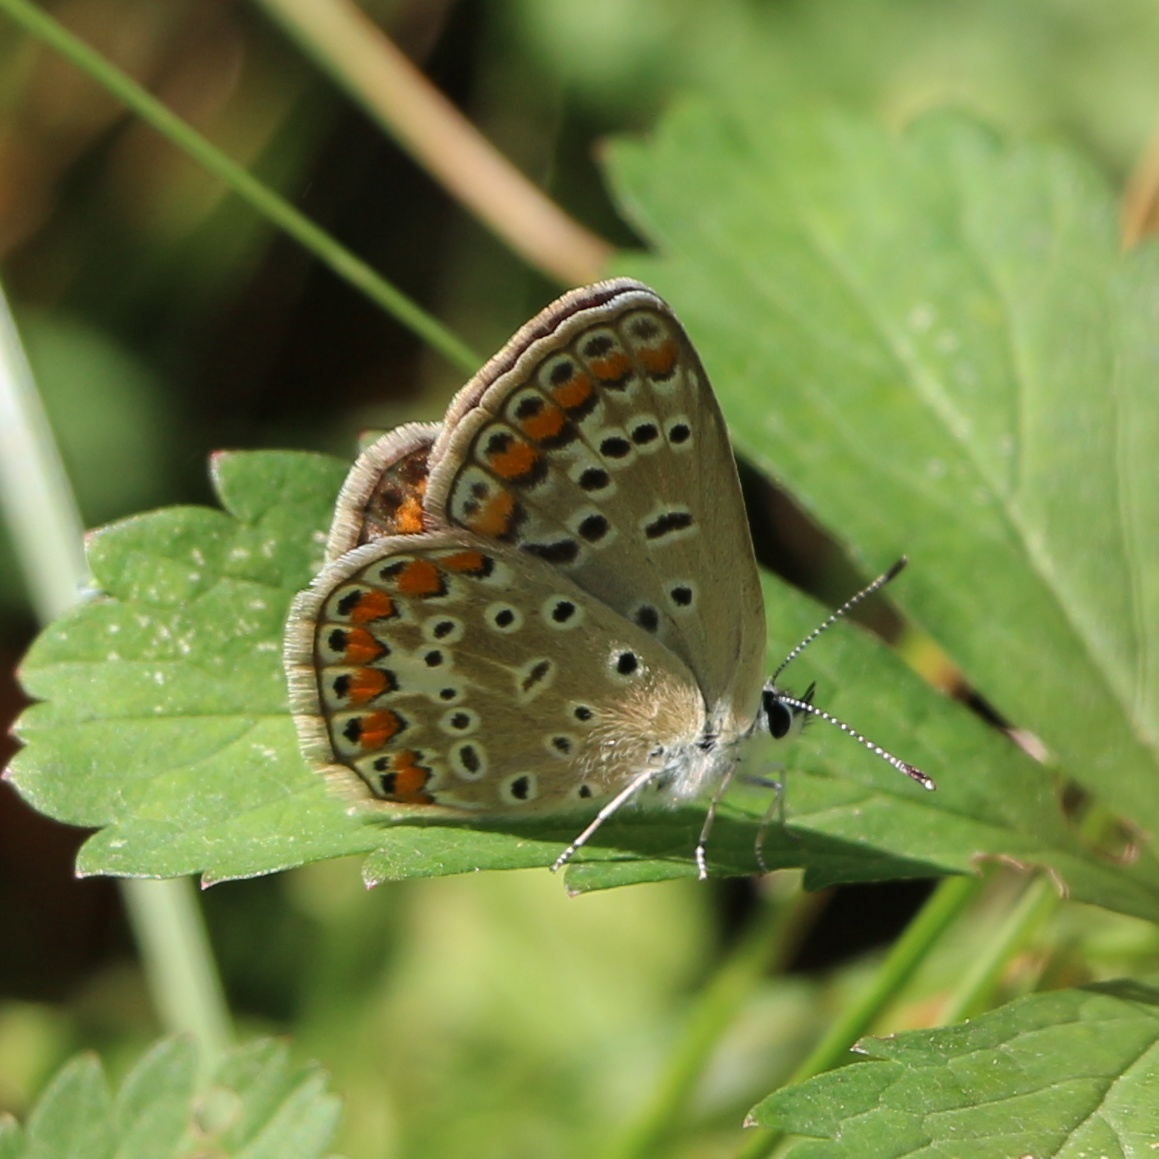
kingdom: Animalia
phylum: Arthropoda
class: Insecta
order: Lepidoptera
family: Lycaenidae
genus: Polyommatus
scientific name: Polyommatus icarus
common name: Common blue
